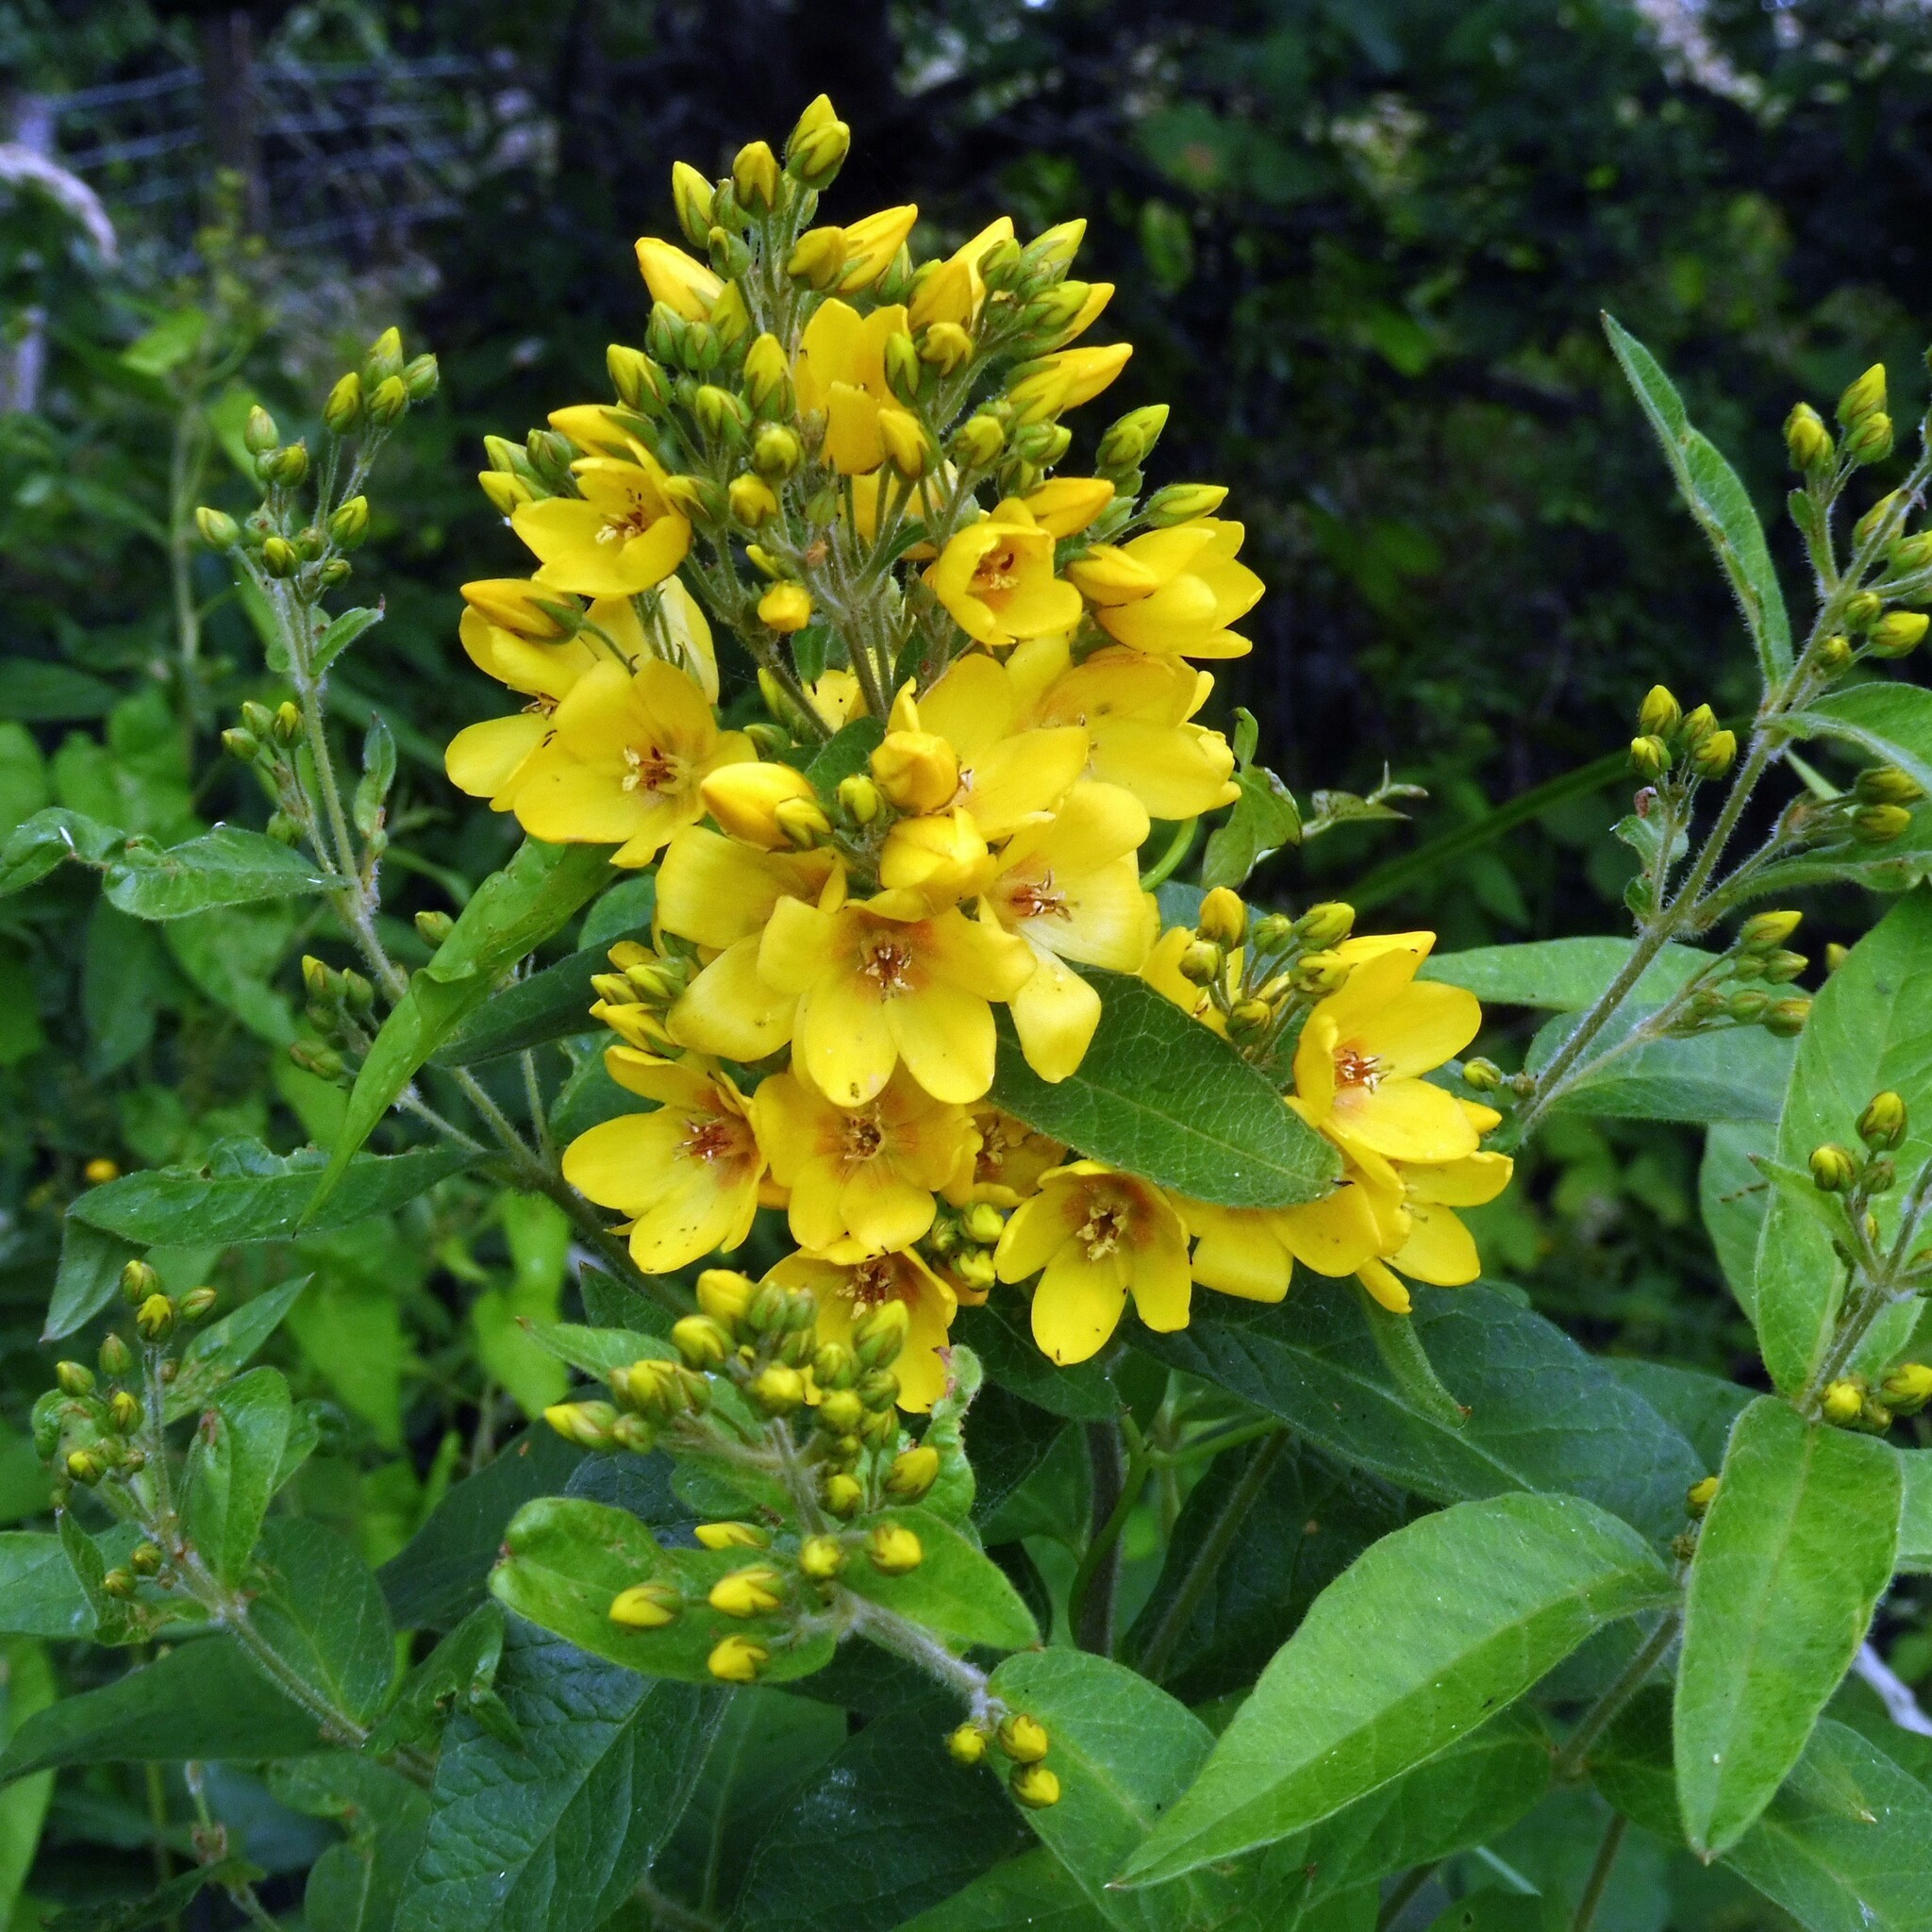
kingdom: Plantae
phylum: Tracheophyta
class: Magnoliopsida
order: Ericales
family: Primulaceae
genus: Lysimachia
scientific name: Lysimachia vulgaris
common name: Yellow loosestrife
